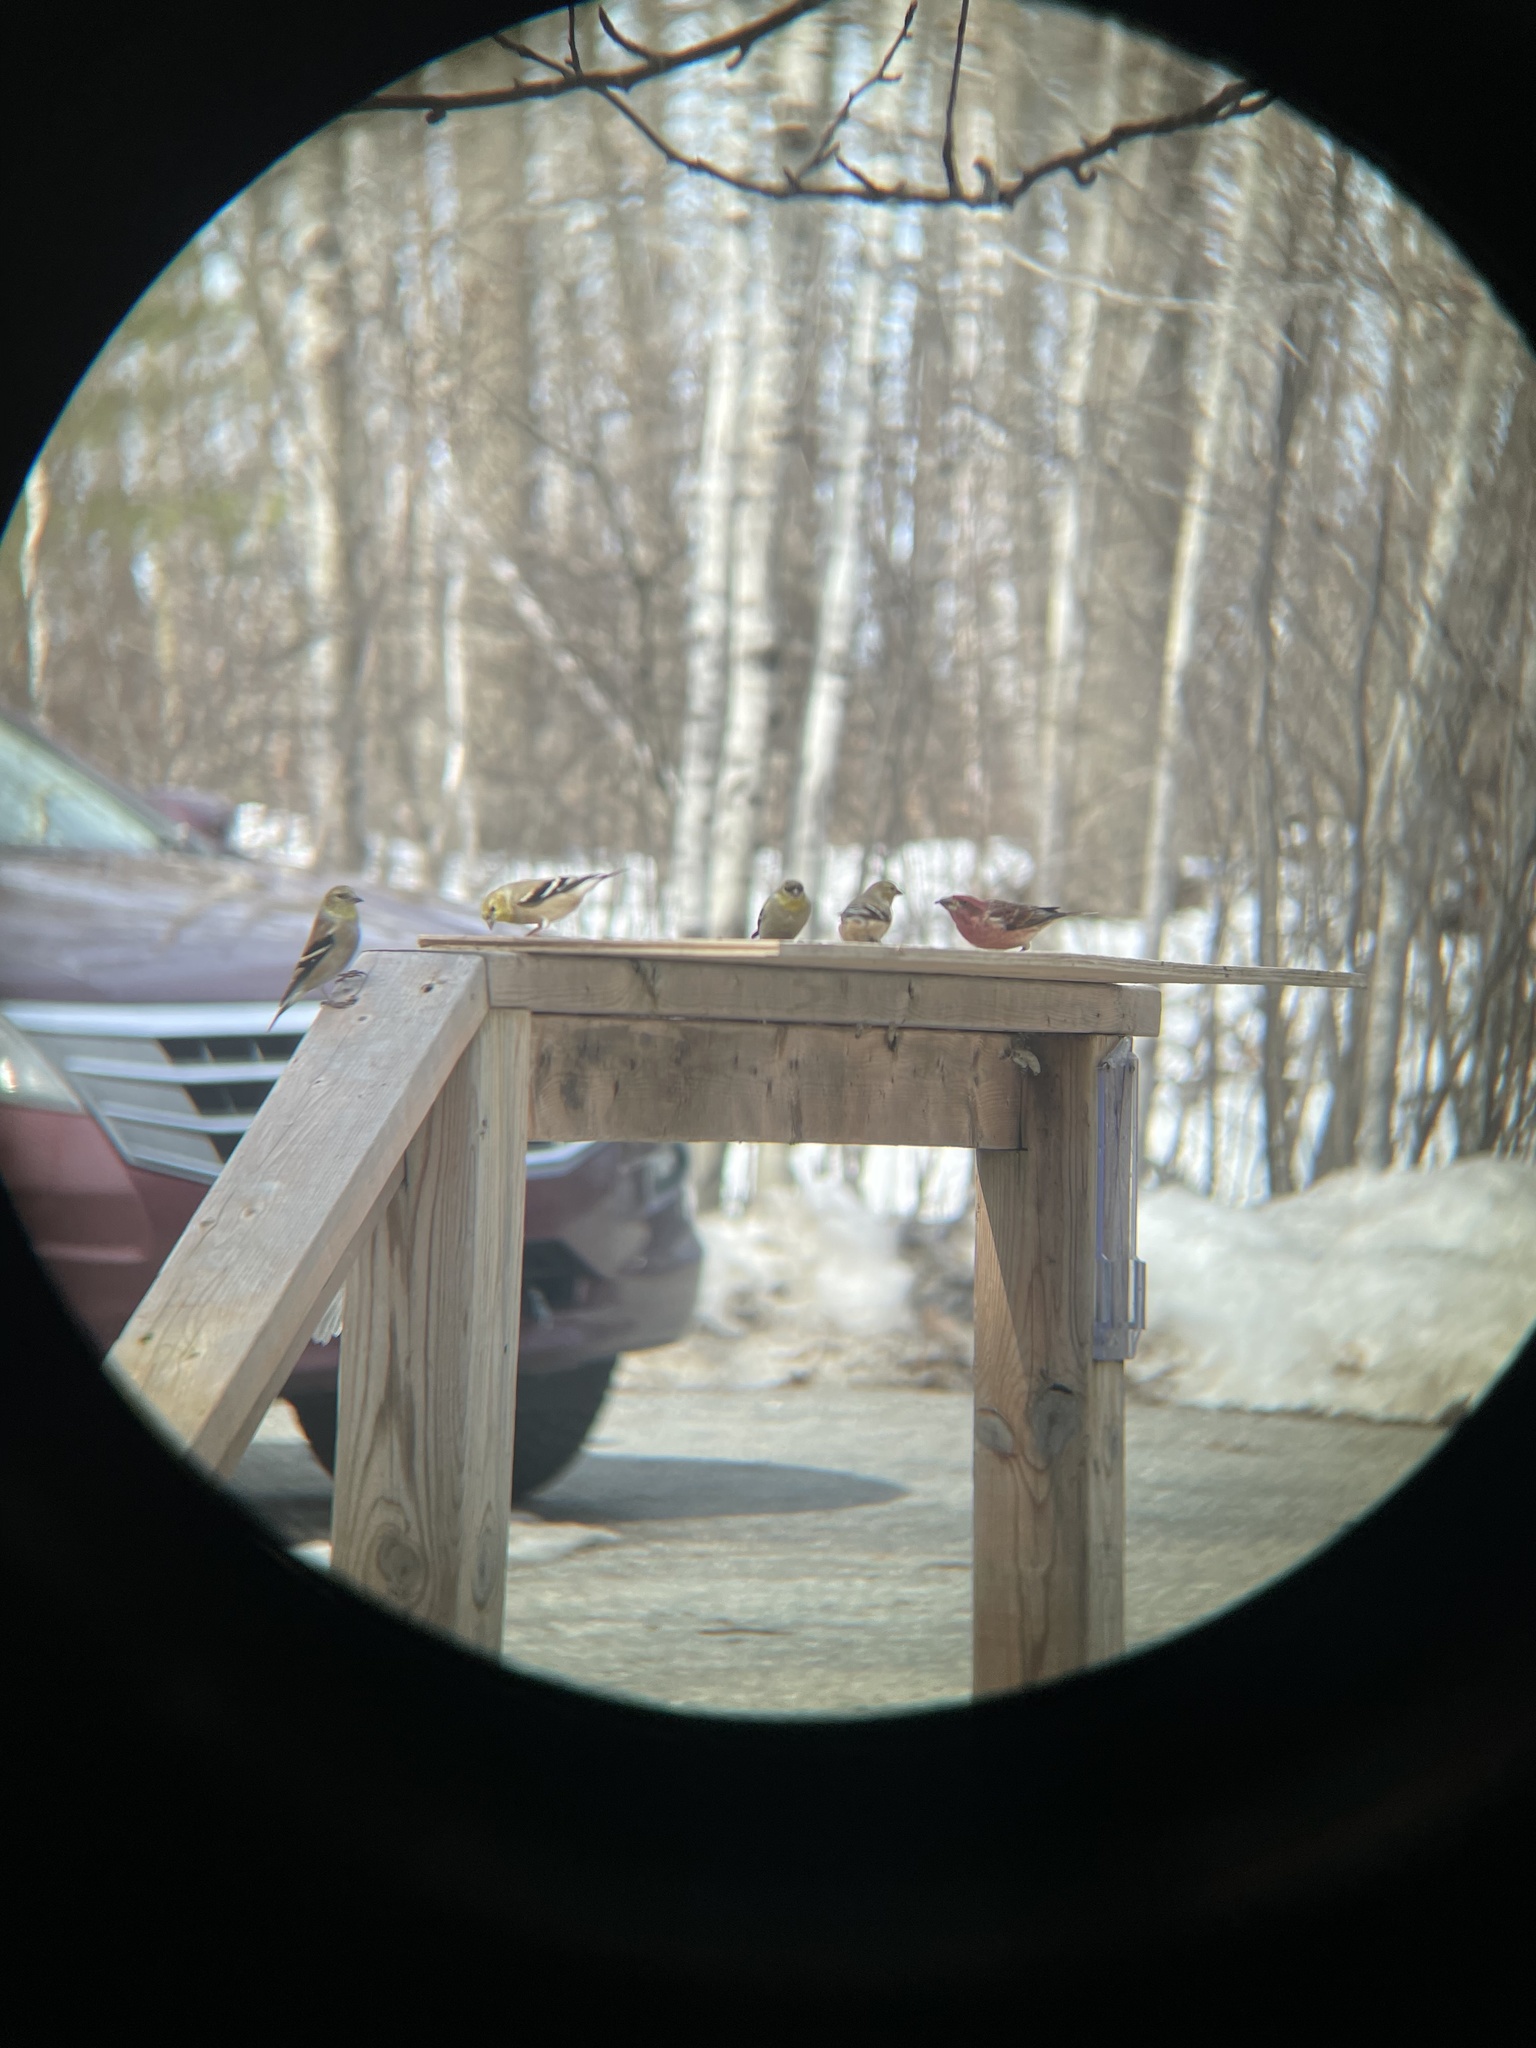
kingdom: Animalia
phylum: Chordata
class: Aves
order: Passeriformes
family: Fringillidae
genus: Haemorhous
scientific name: Haemorhous purpureus
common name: Purple finch
